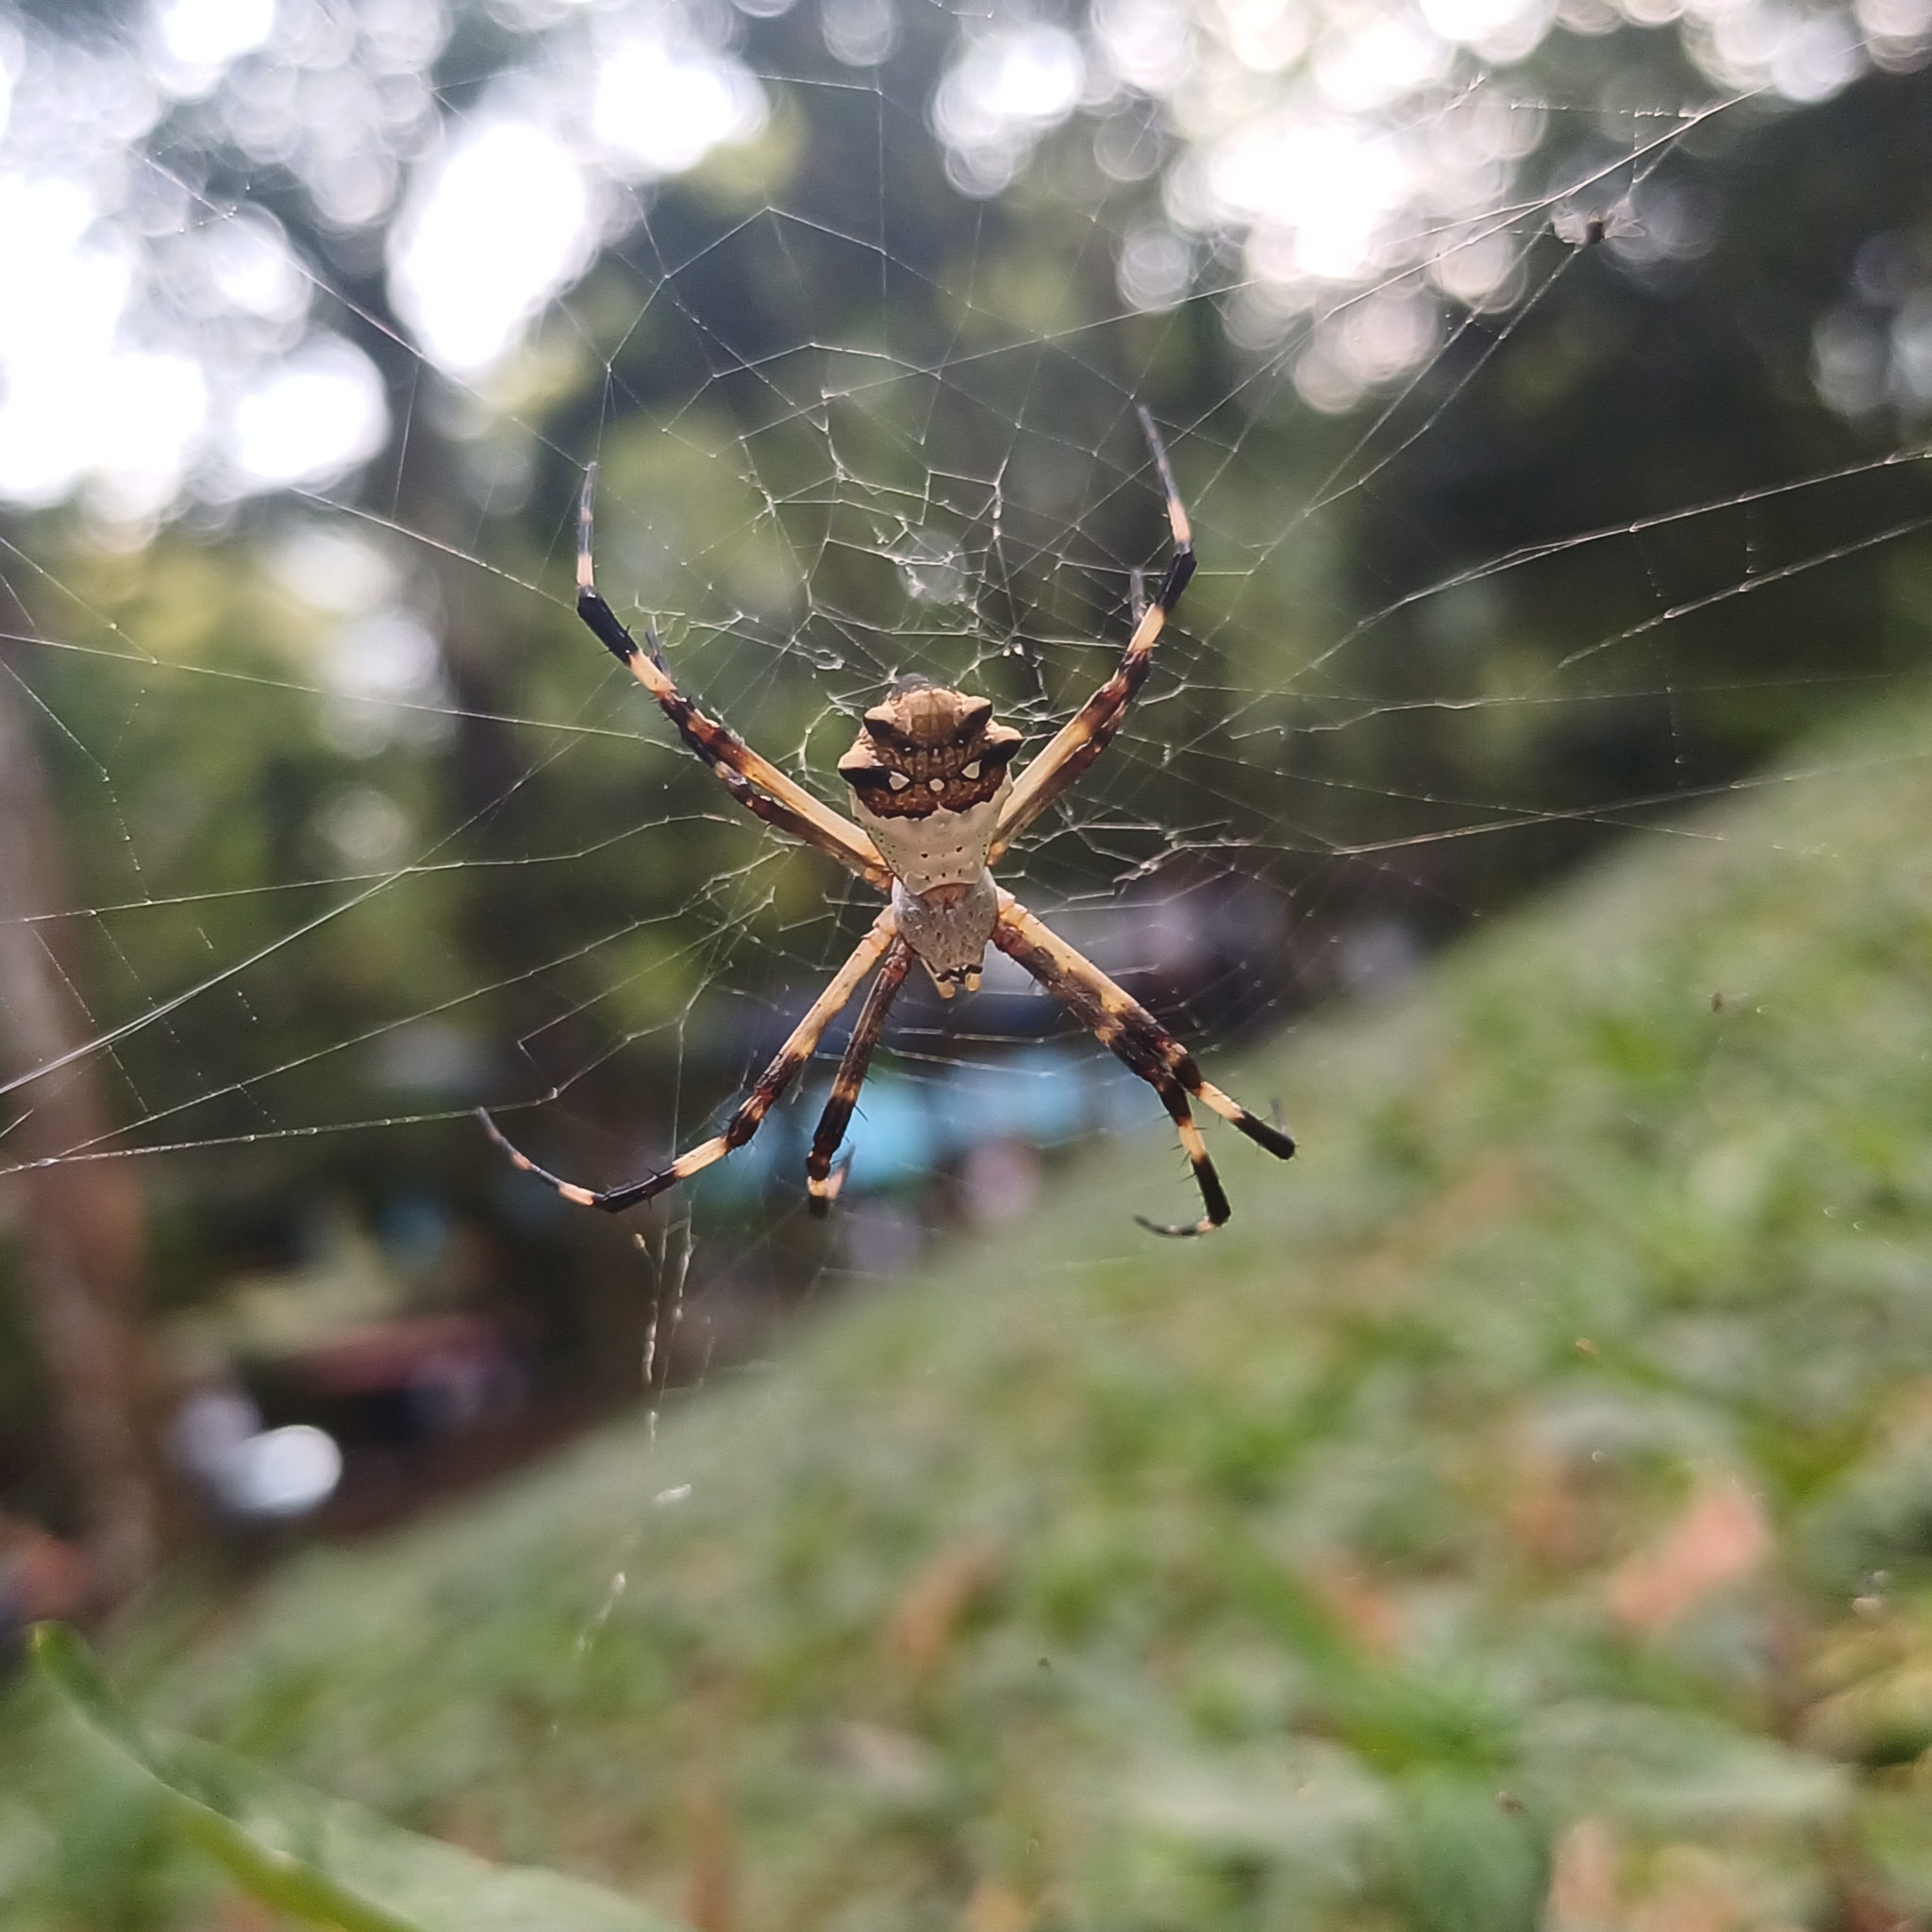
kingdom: Animalia
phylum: Arthropoda
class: Arachnida
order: Araneae
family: Araneidae
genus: Argiope
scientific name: Argiope argentata
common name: Orb weavers
